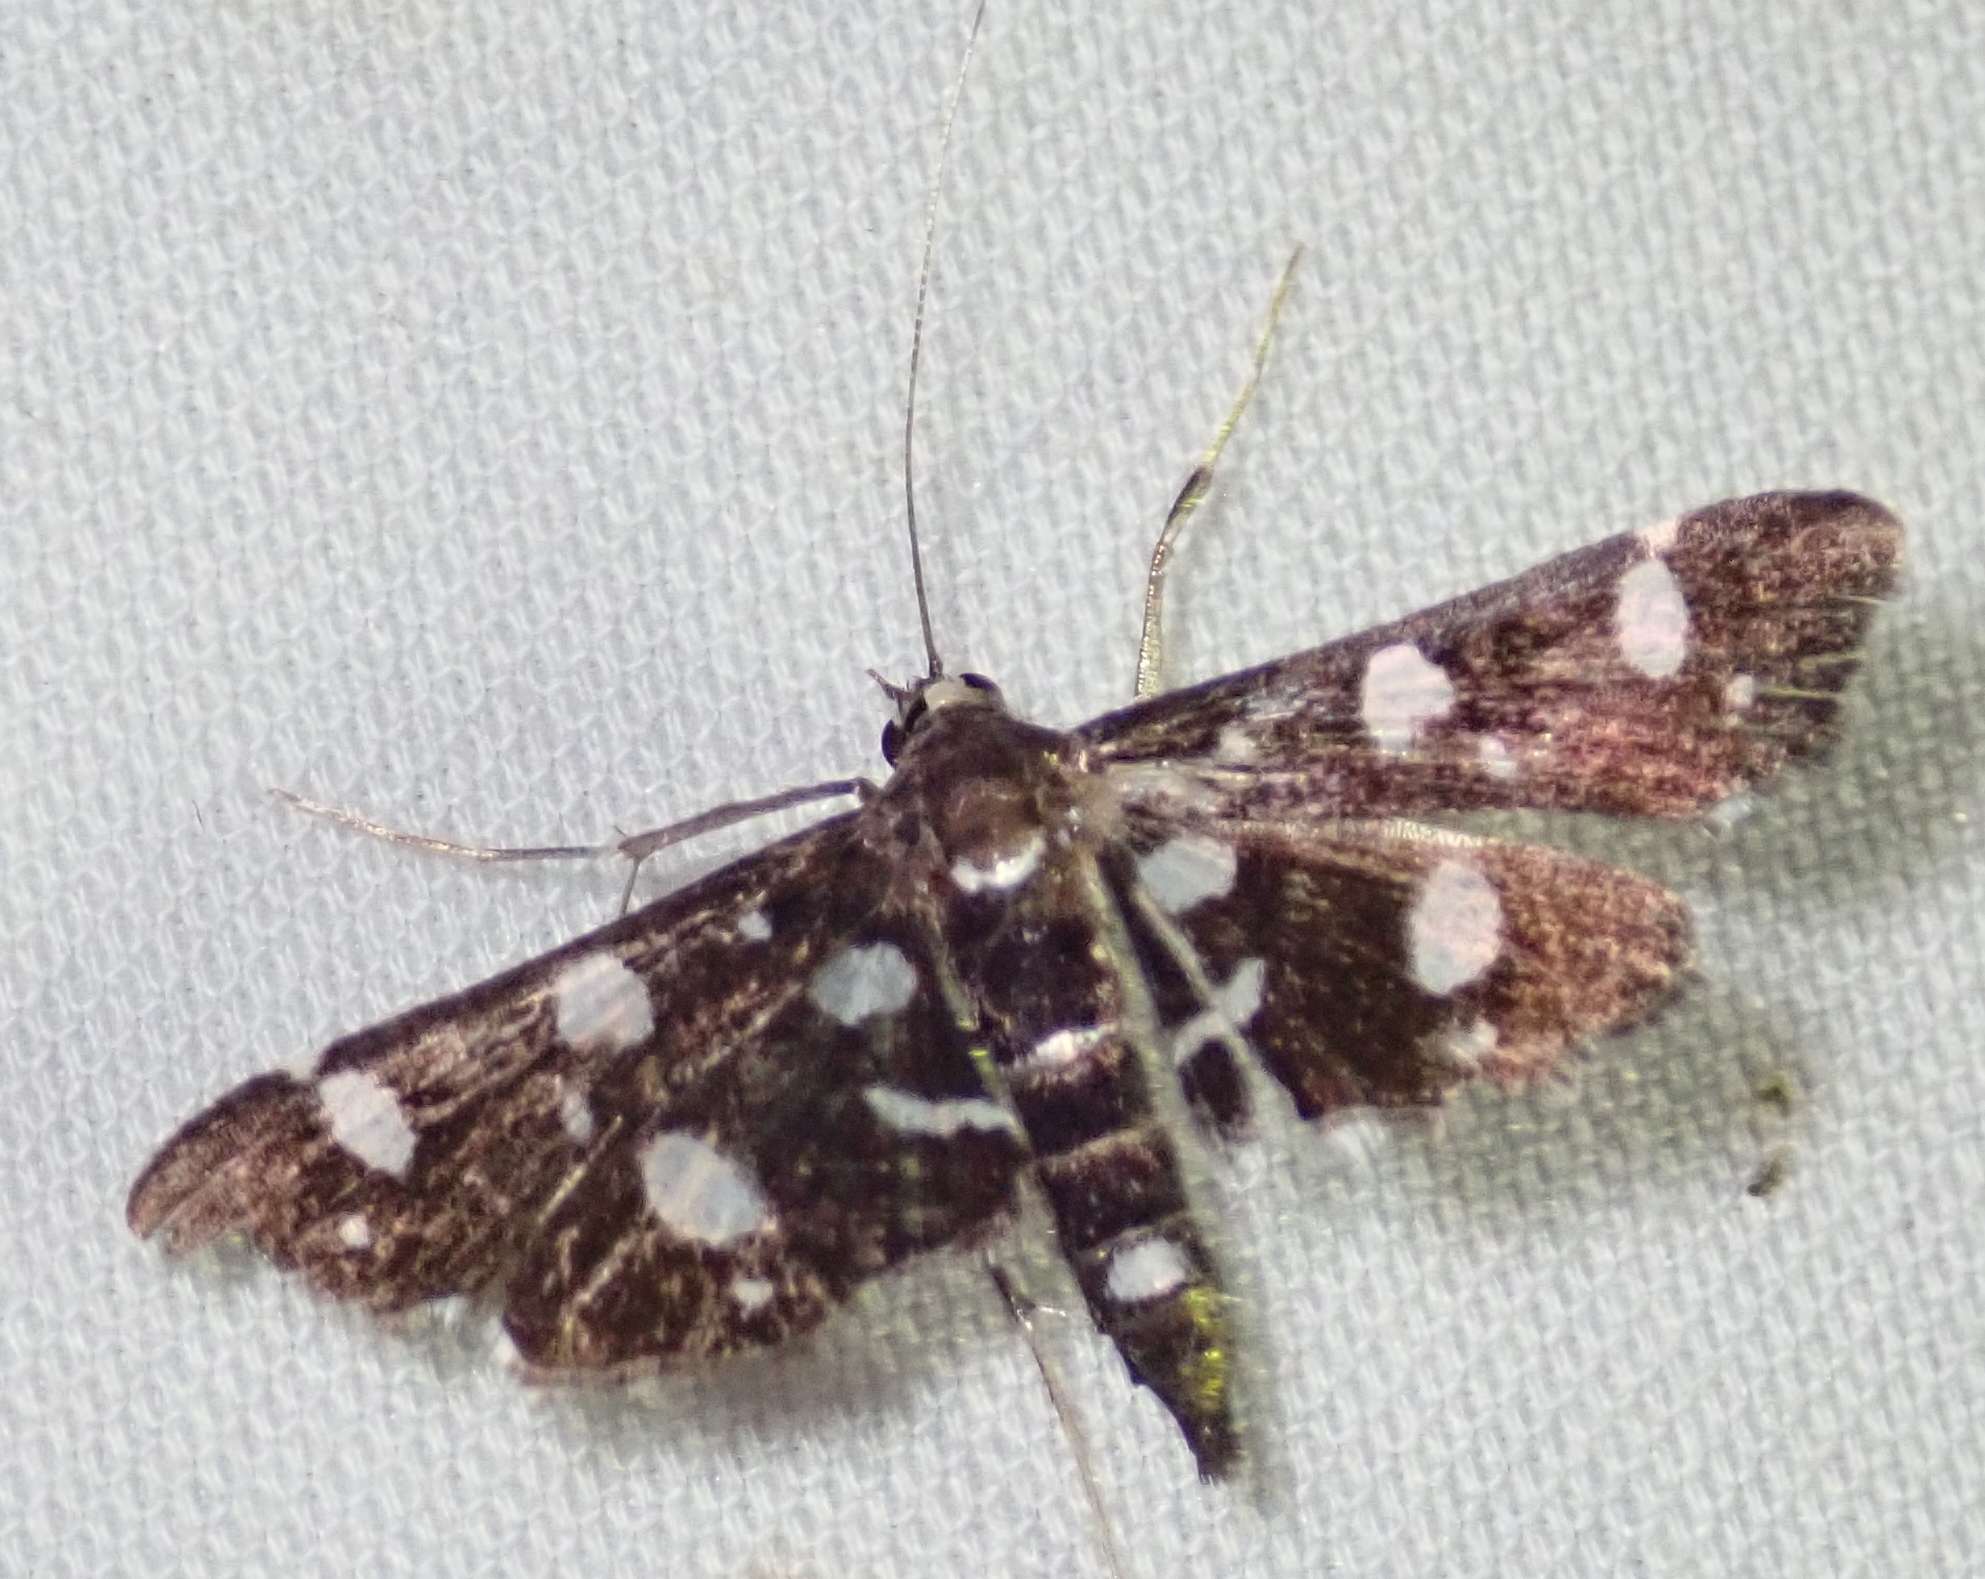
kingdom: Animalia
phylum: Arthropoda
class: Insecta
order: Lepidoptera
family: Crambidae
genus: Bocchoris
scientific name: Bocchoris inspersalis
